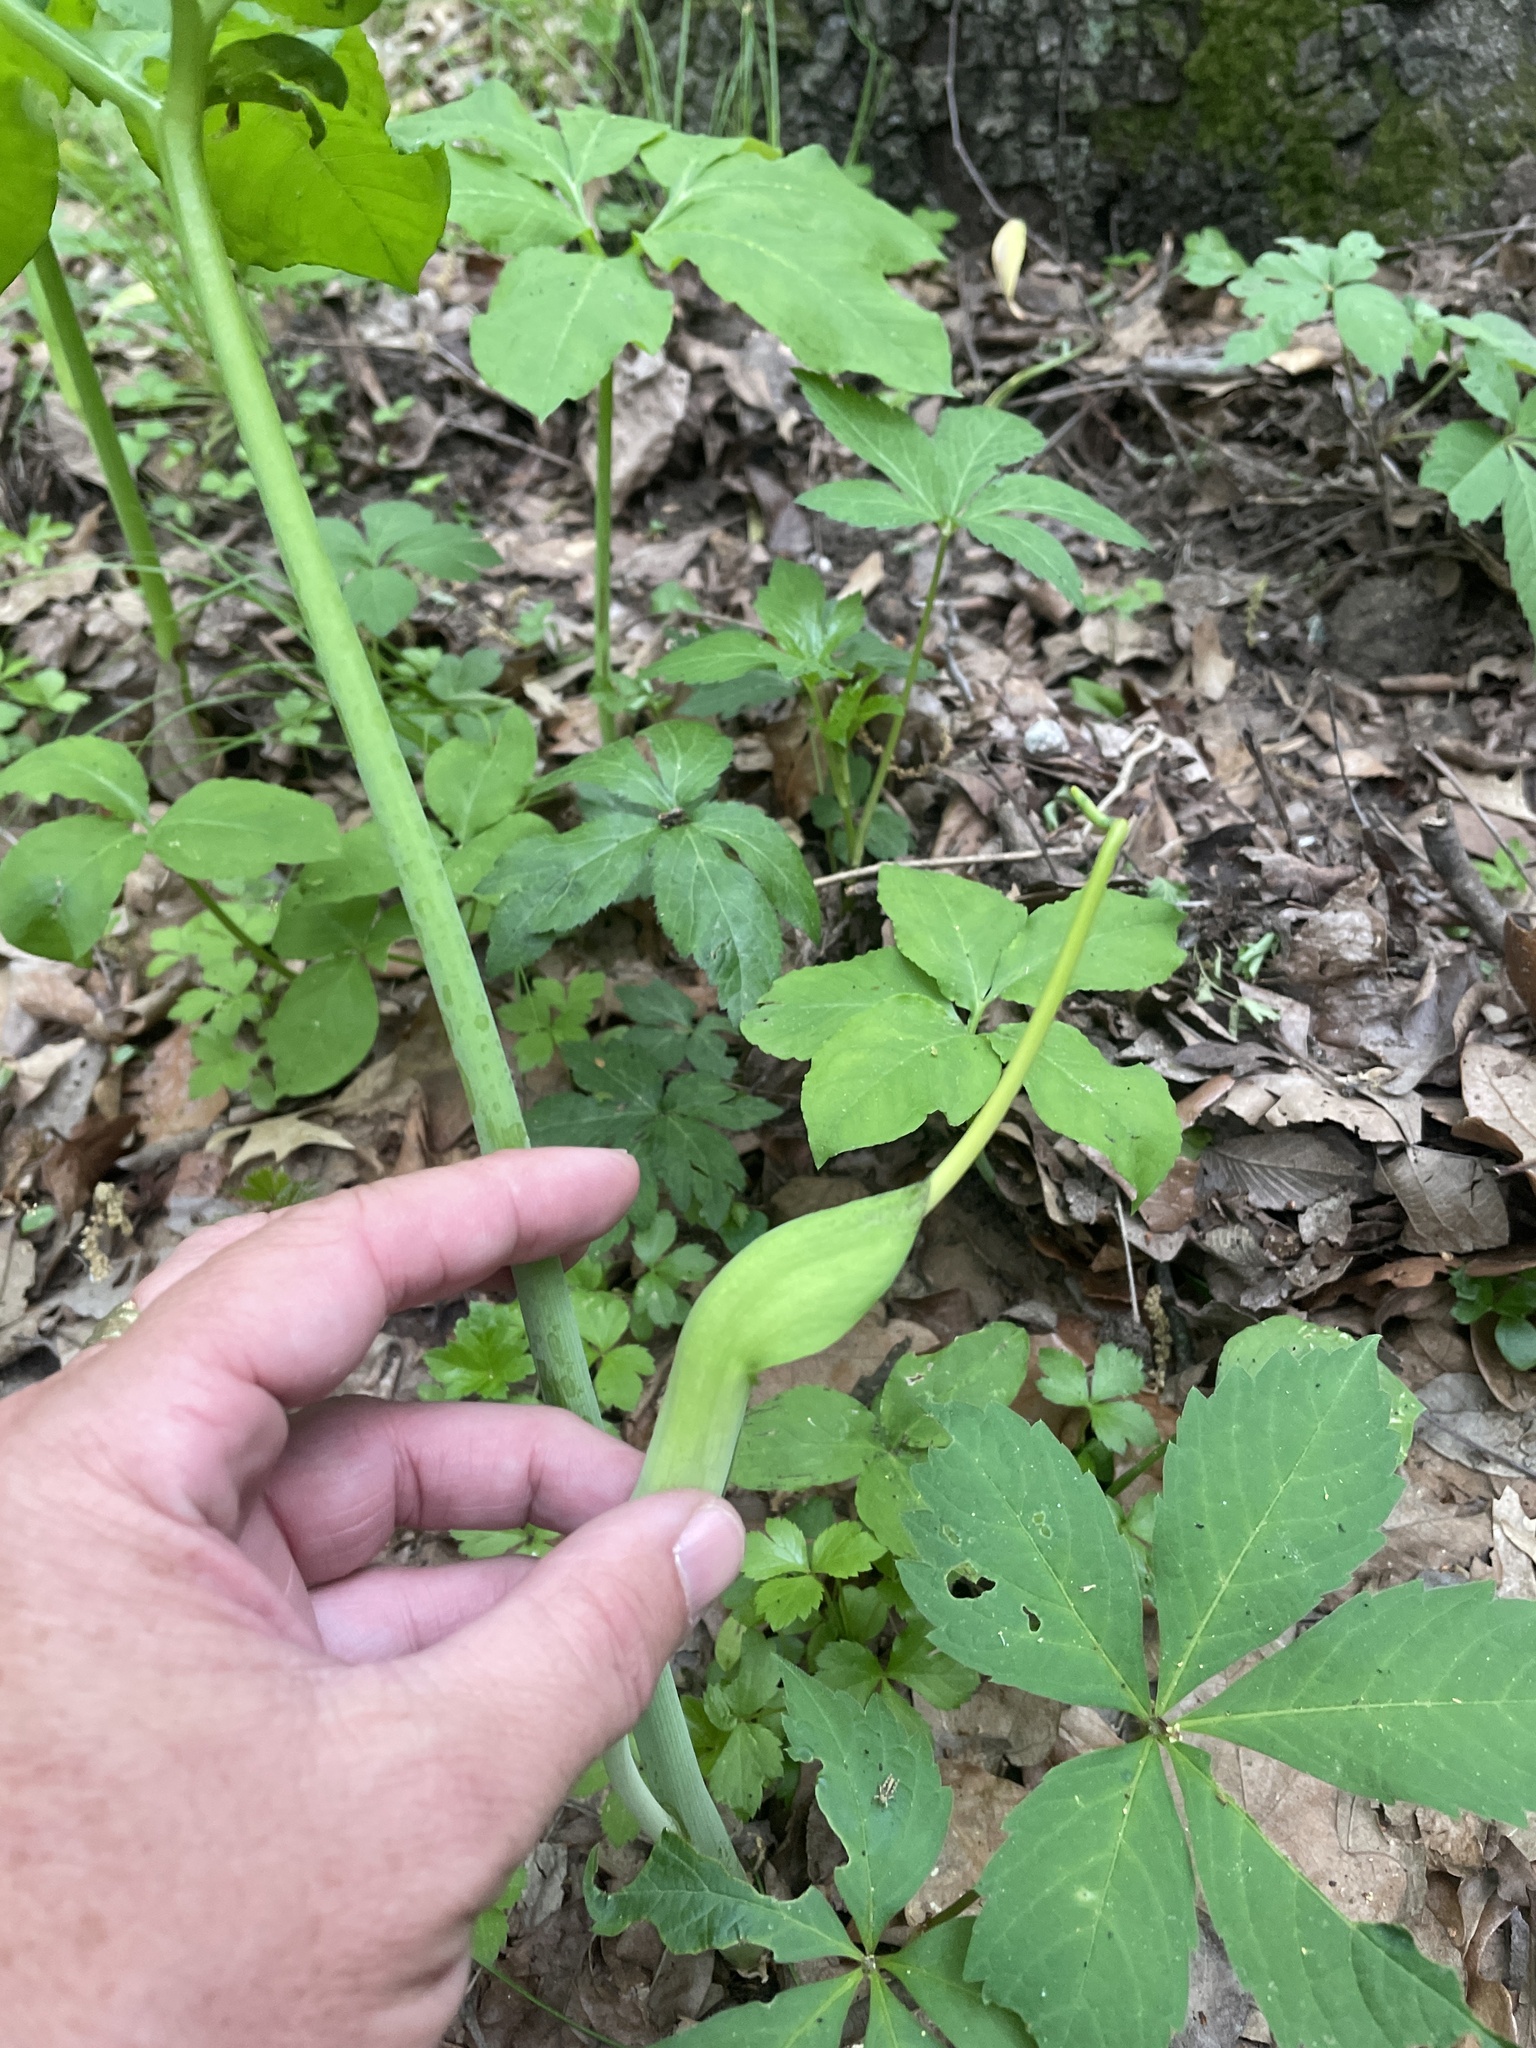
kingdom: Plantae
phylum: Tracheophyta
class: Liliopsida
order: Alismatales
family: Araceae
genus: Arisaema
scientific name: Arisaema dracontium
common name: Dragon-arum
